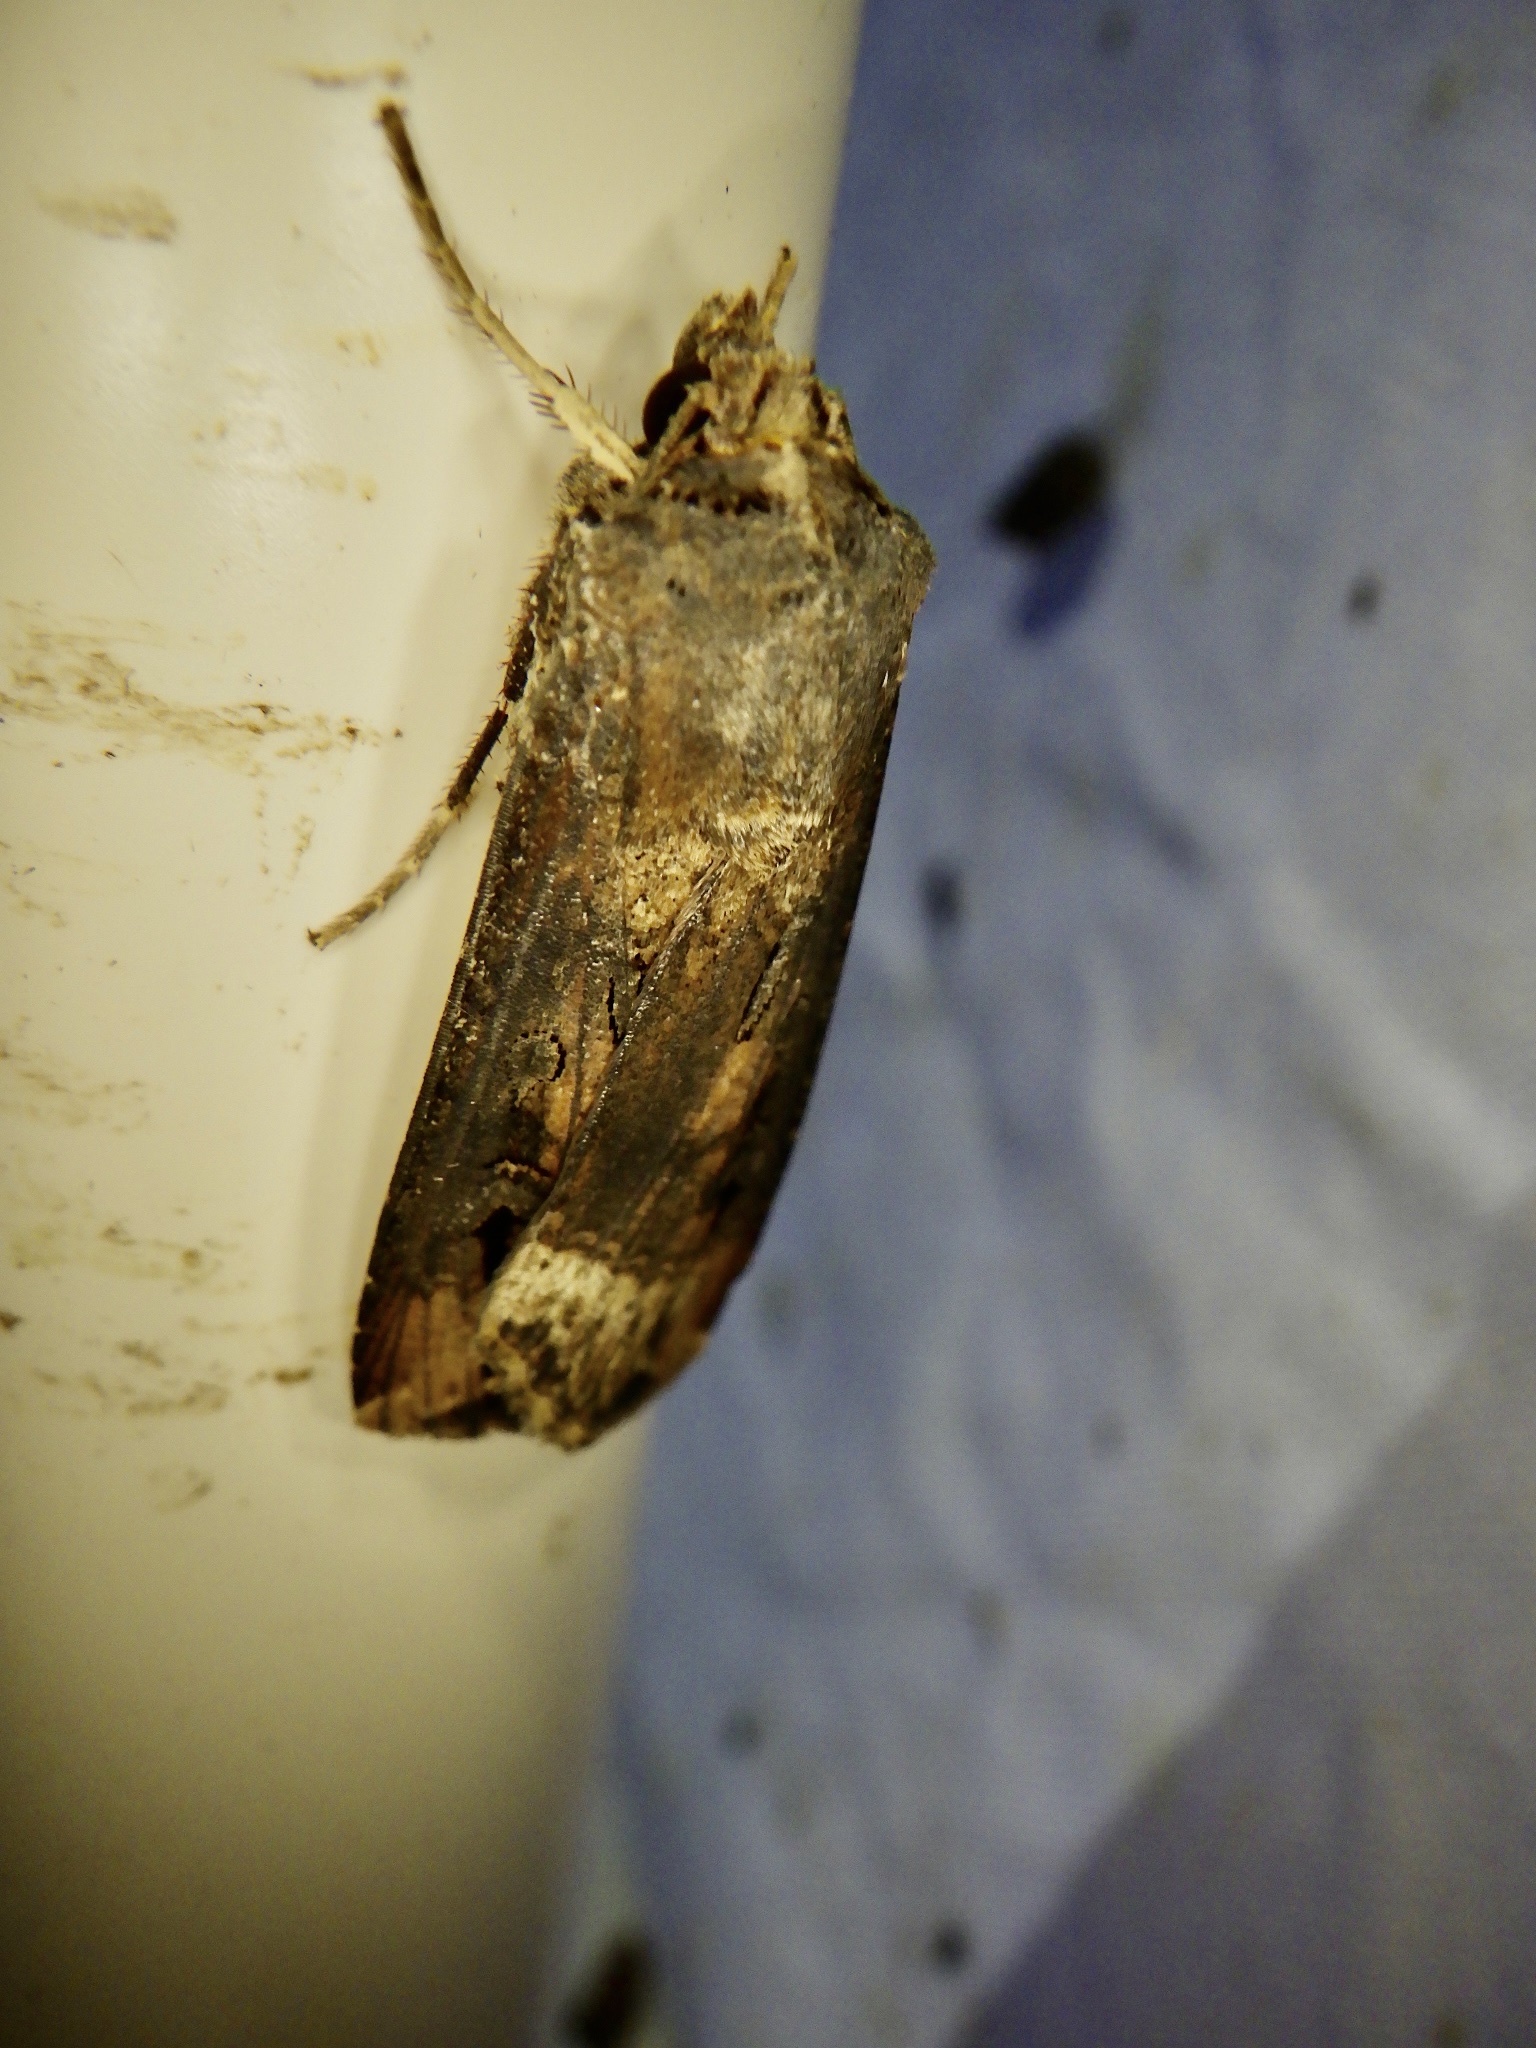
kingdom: Animalia
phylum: Arthropoda
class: Insecta
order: Lepidoptera
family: Noctuidae
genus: Agrotis
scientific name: Agrotis ipsilon
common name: Dark sword-grass
